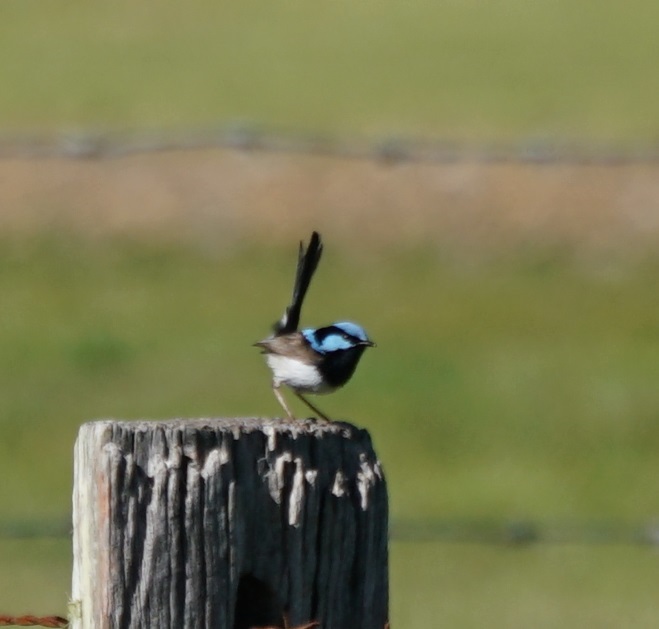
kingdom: Animalia
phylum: Chordata
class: Aves
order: Passeriformes
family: Maluridae
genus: Malurus
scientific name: Malurus cyaneus
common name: Superb fairywren
